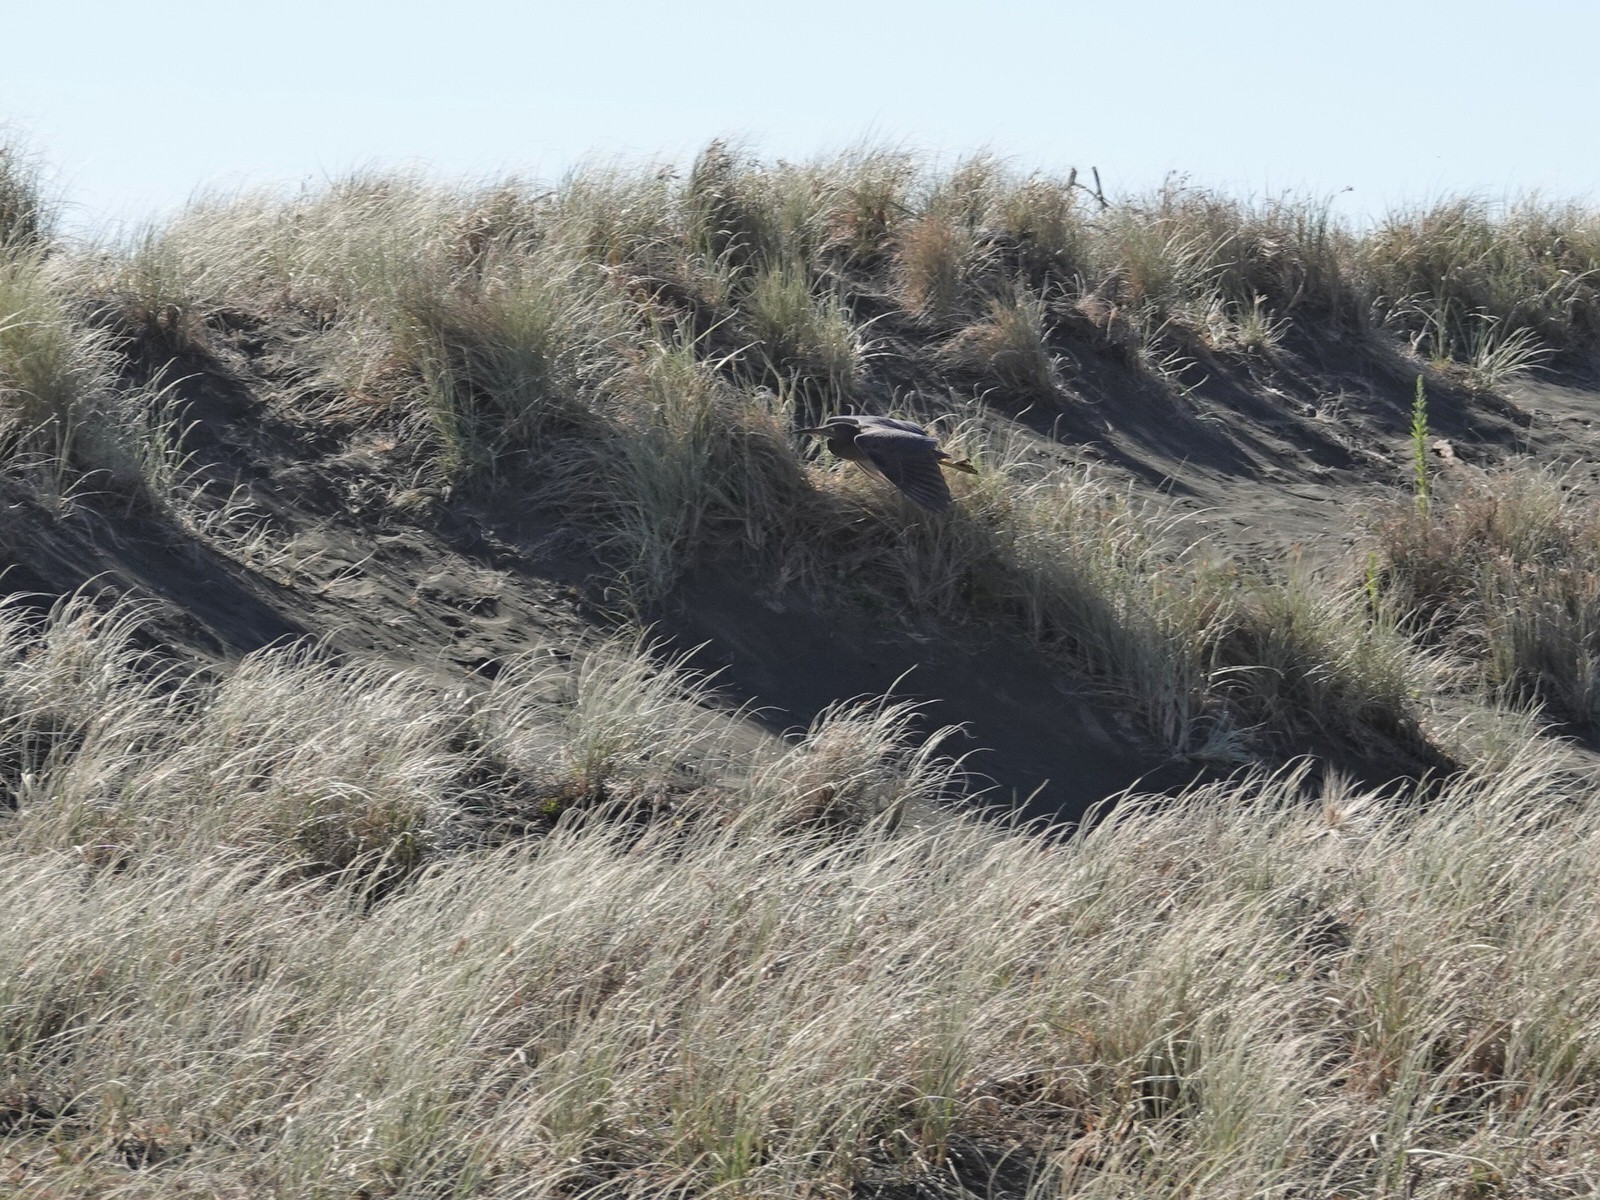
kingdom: Animalia
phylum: Chordata
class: Aves
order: Pelecaniformes
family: Ardeidae
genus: Egretta
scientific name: Egretta sacra
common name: Pacific reef heron
